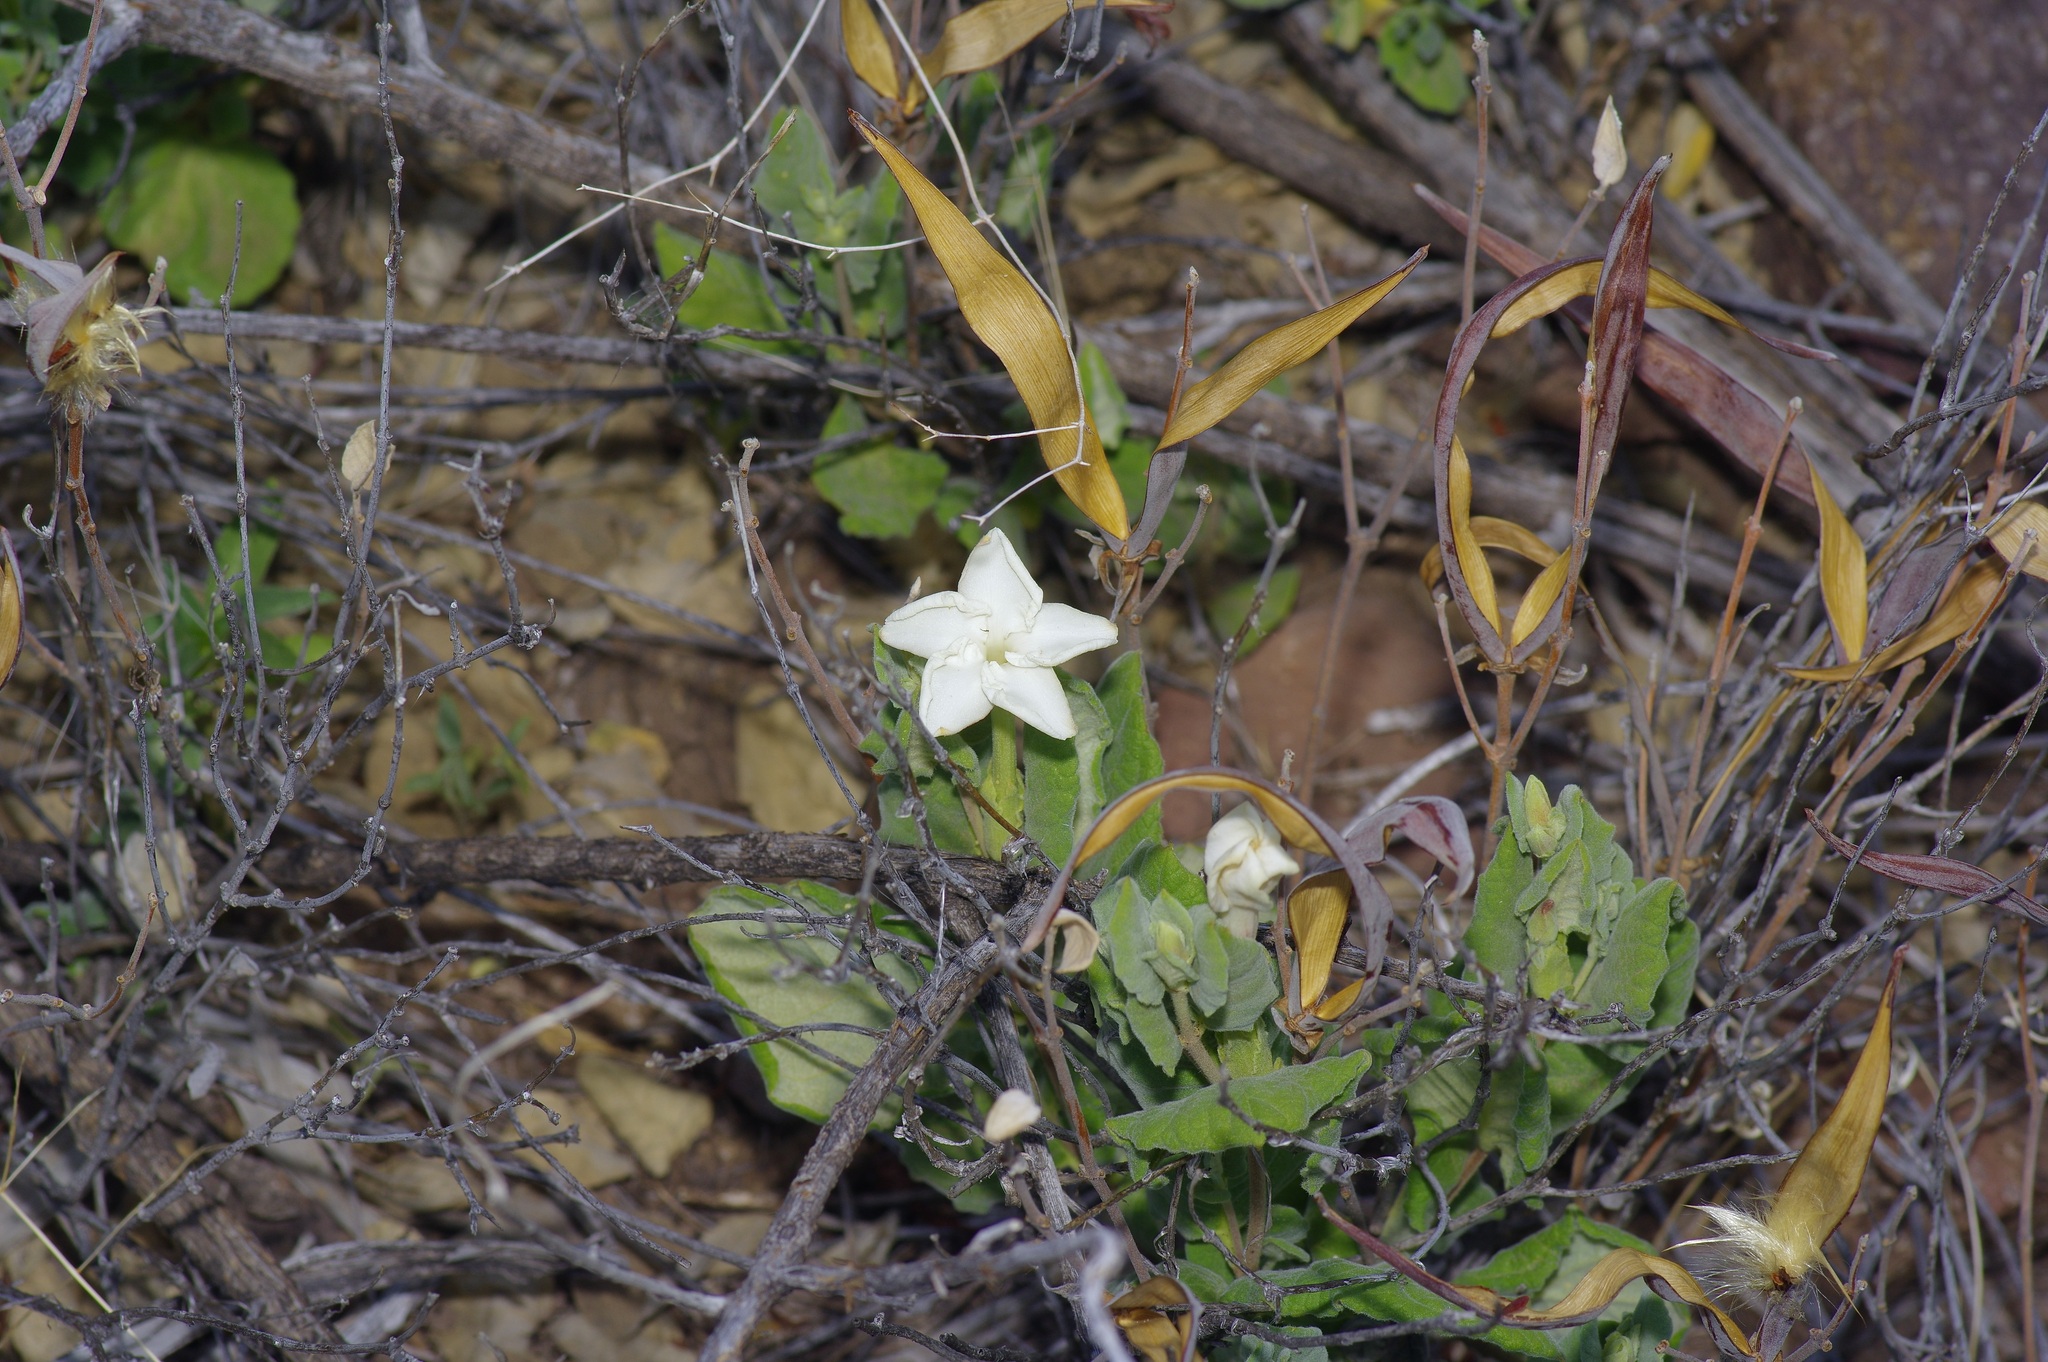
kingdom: Plantae
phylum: Tracheophyta
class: Magnoliopsida
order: Gentianales
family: Apocynaceae
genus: Mandevilla
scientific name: Mandevilla macrosiphon
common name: Plateau rocktrumpet
